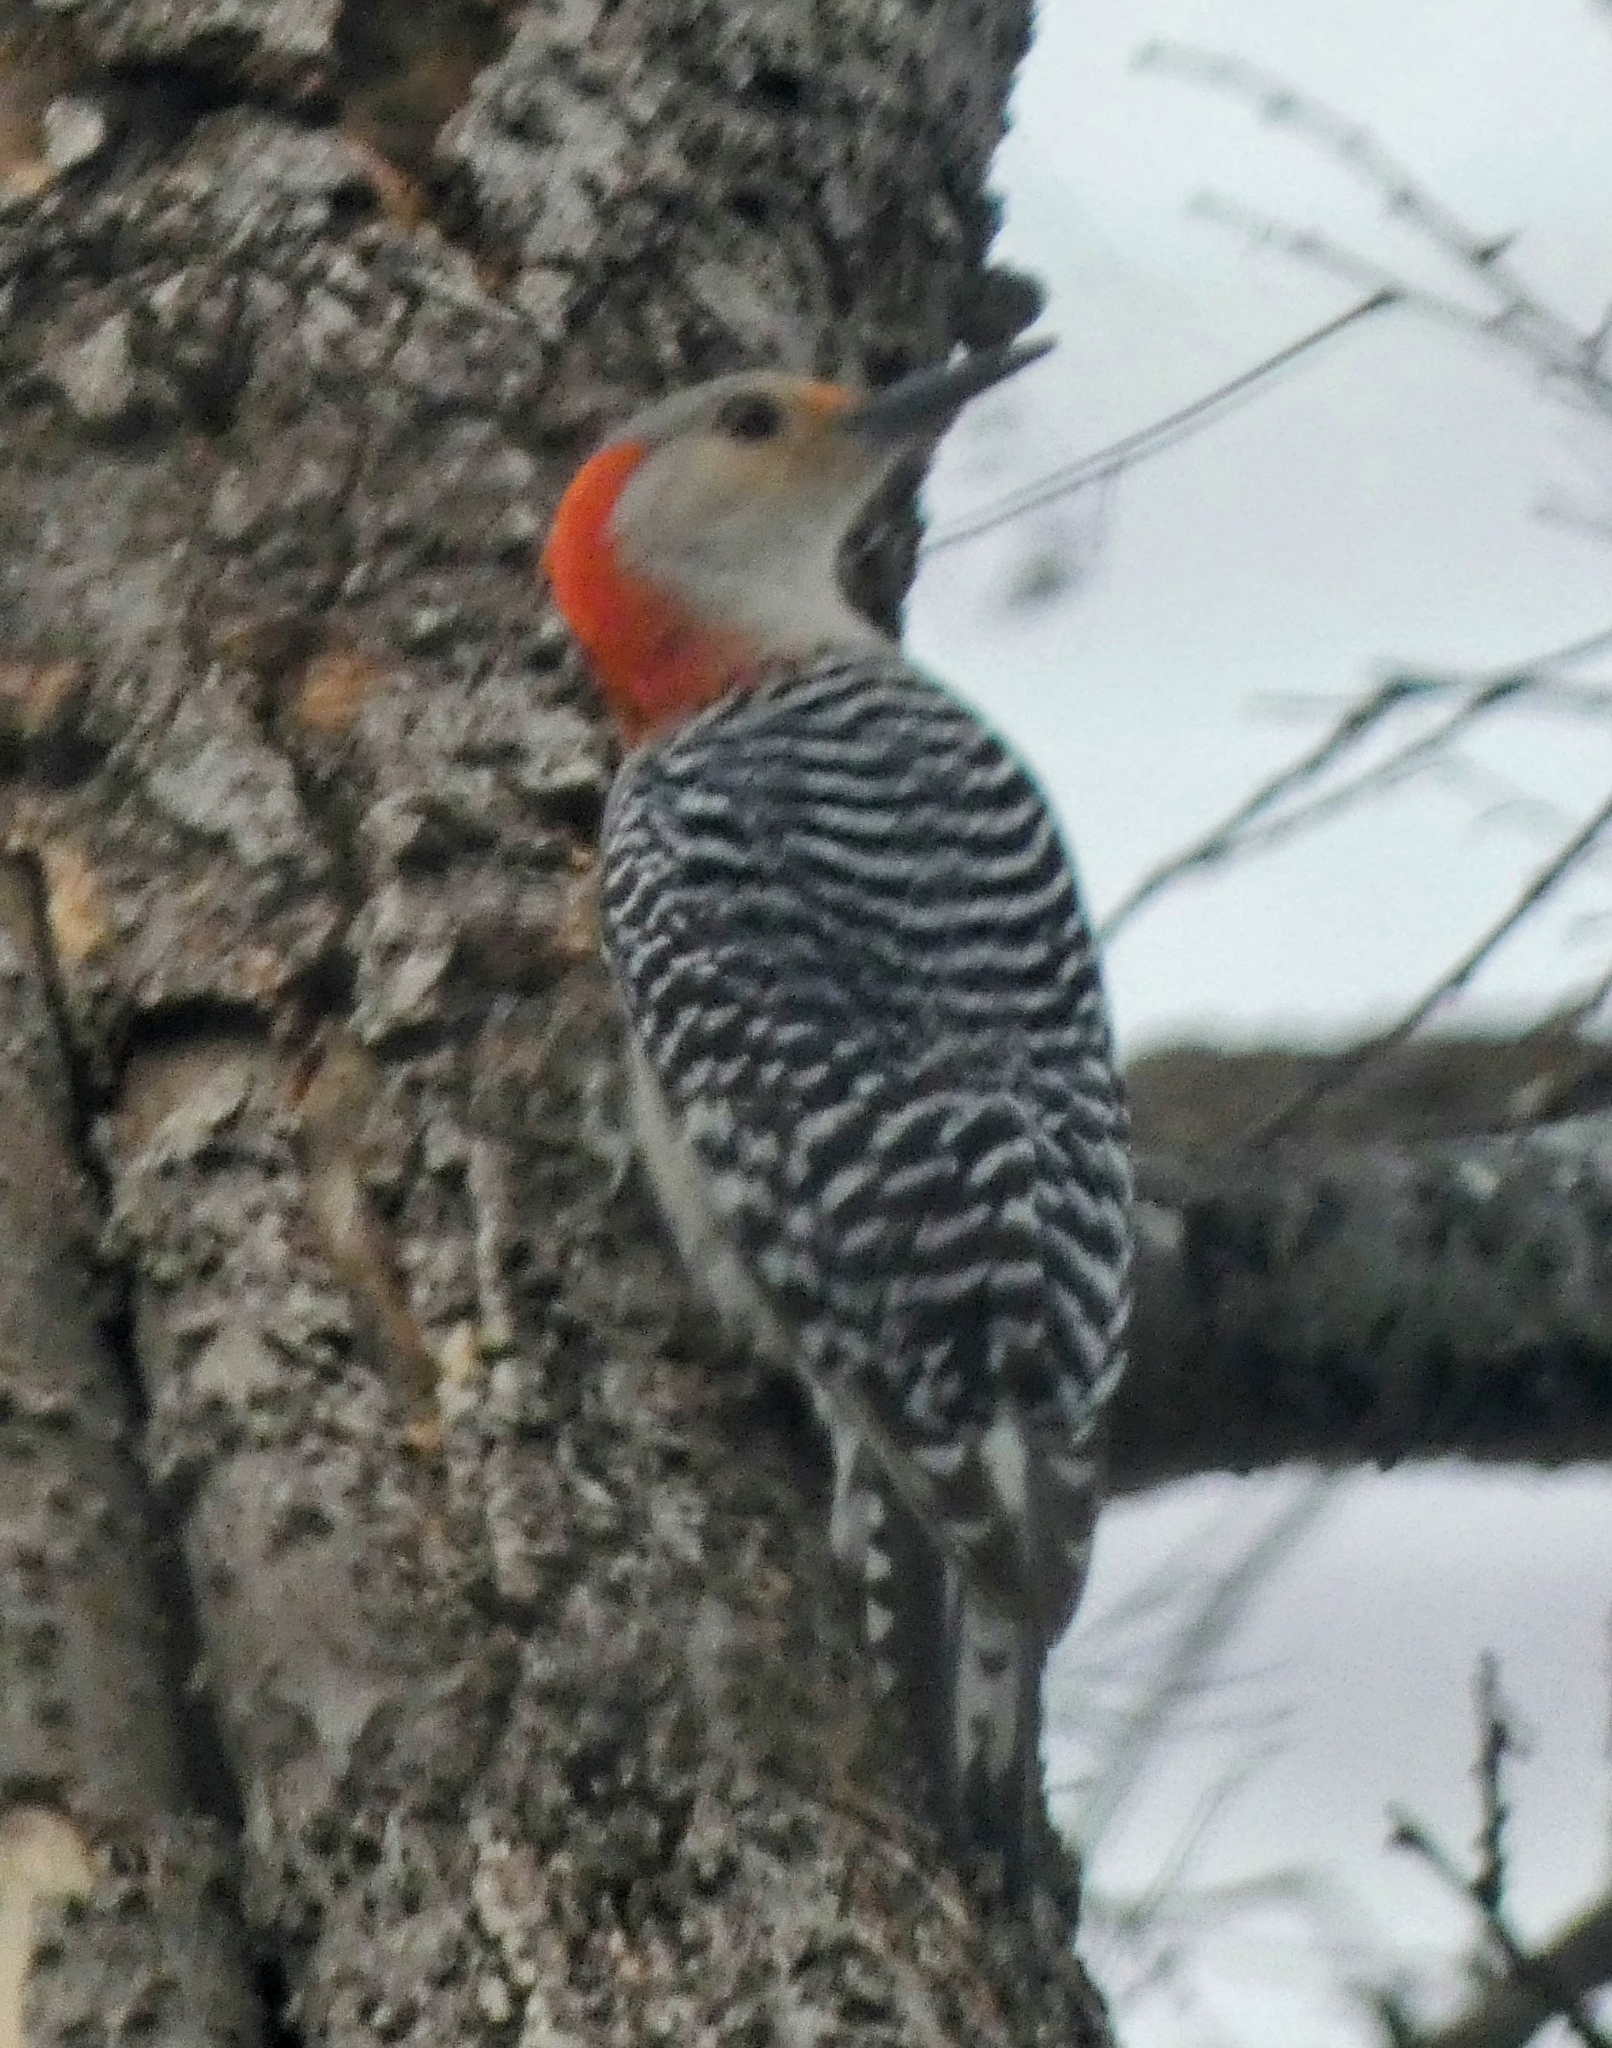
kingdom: Animalia
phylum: Chordata
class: Aves
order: Piciformes
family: Picidae
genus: Melanerpes
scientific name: Melanerpes carolinus
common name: Red-bellied woodpecker
